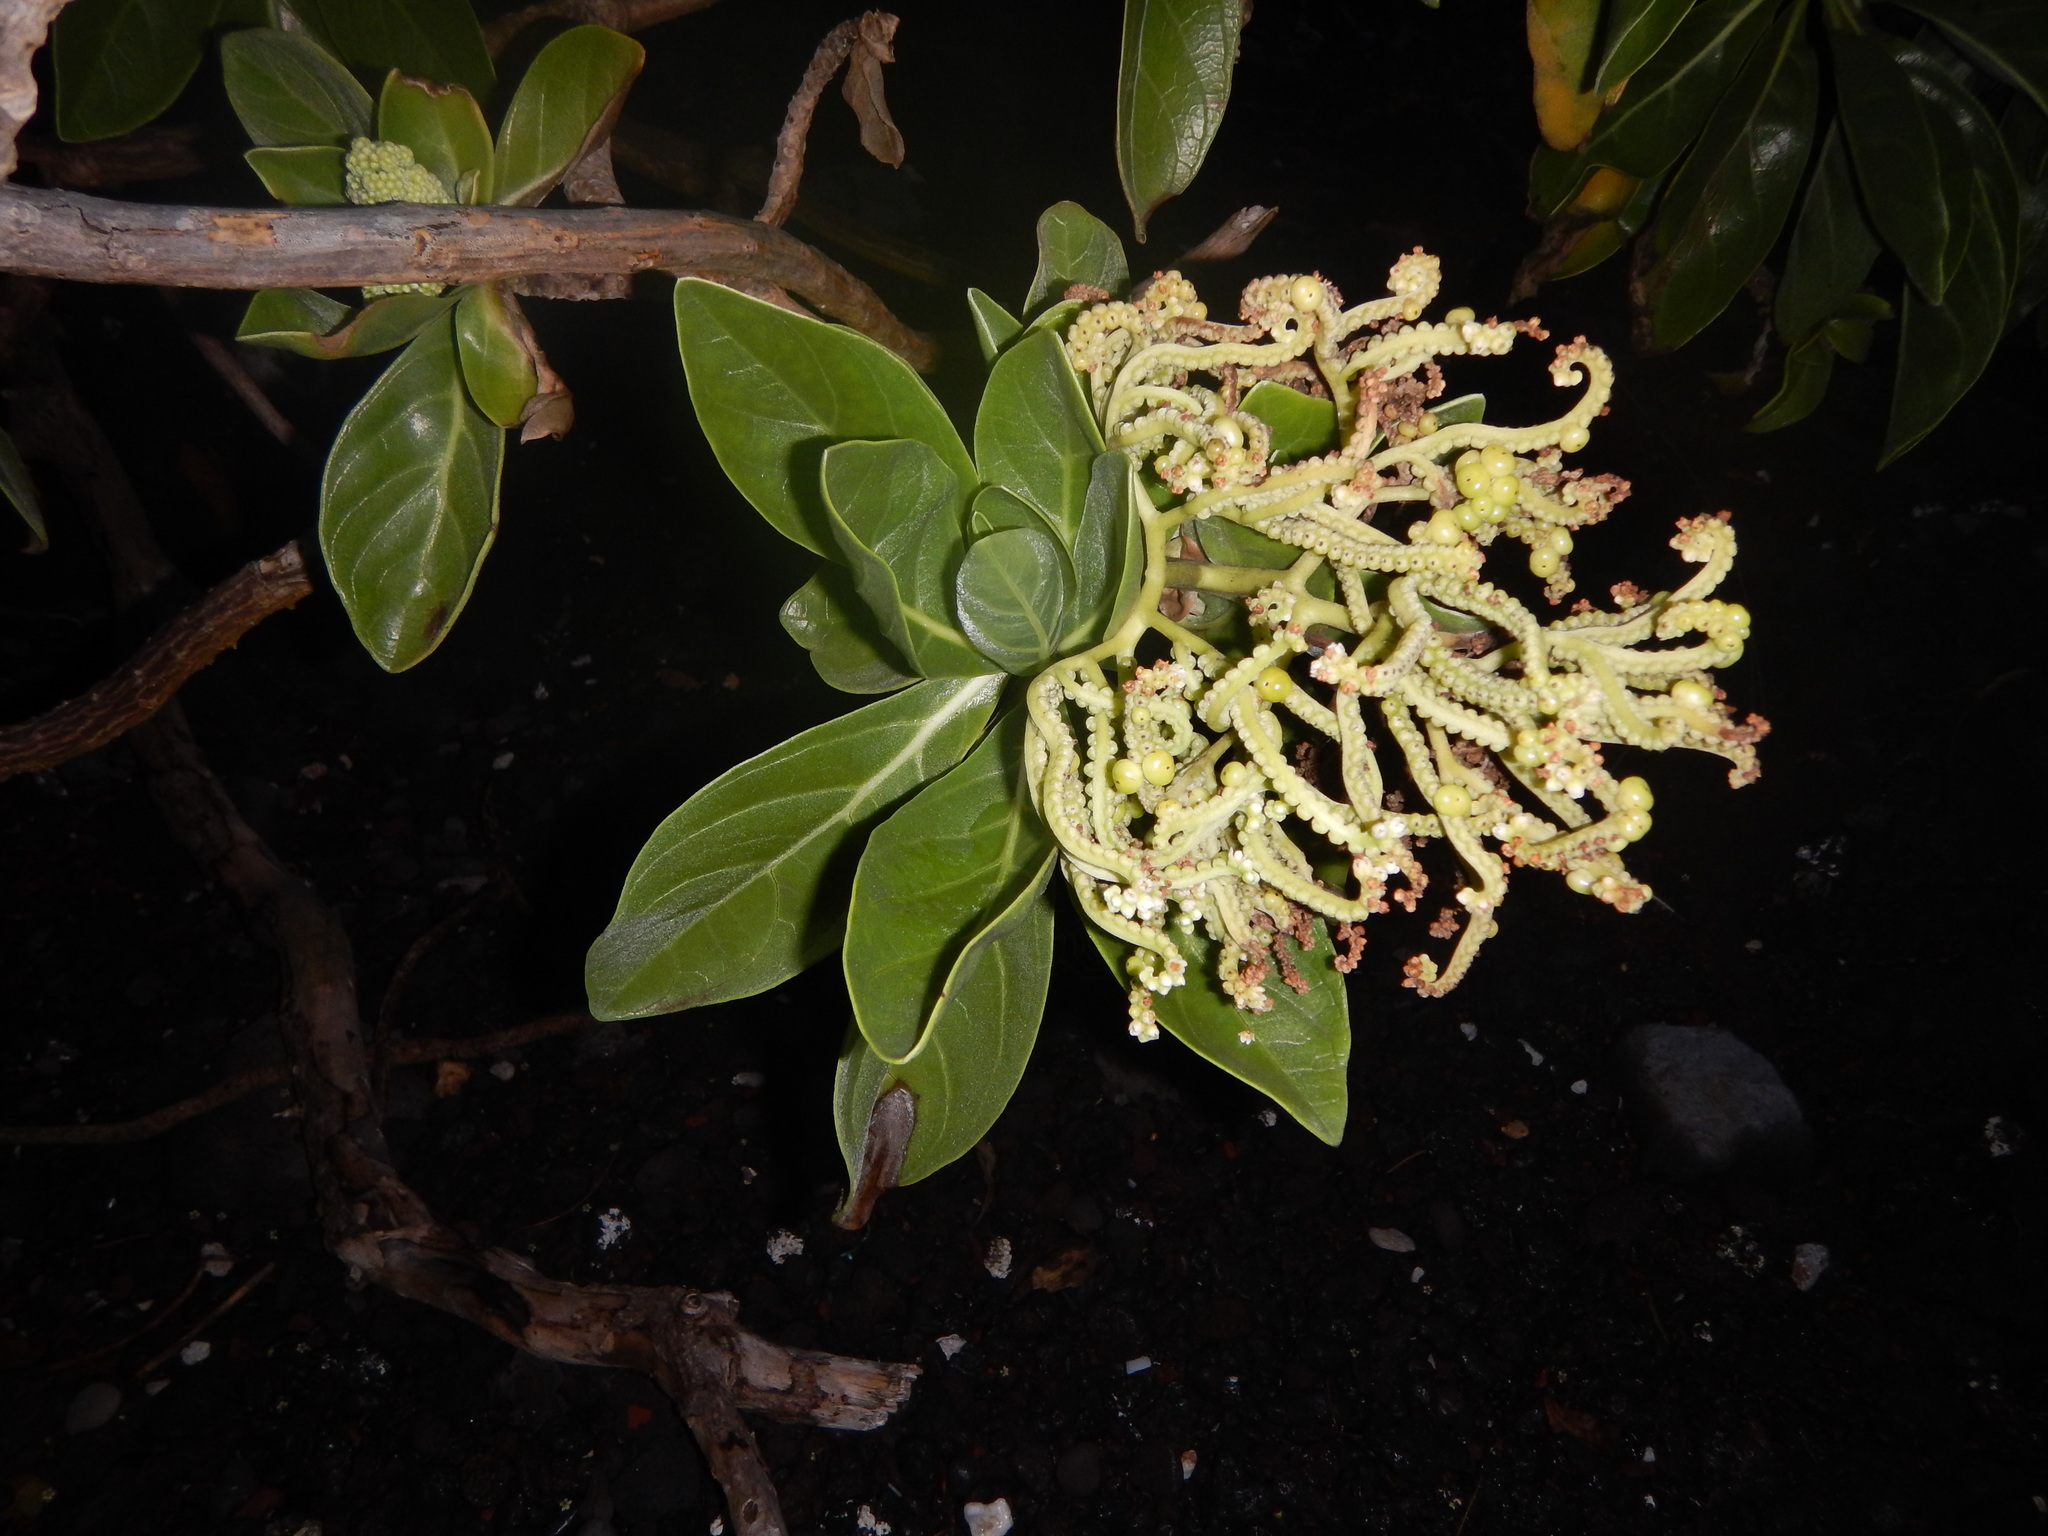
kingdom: Plantae
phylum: Tracheophyta
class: Magnoliopsida
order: Boraginales
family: Heliotropiaceae
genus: Heliotropium
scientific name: Heliotropium velutinum
